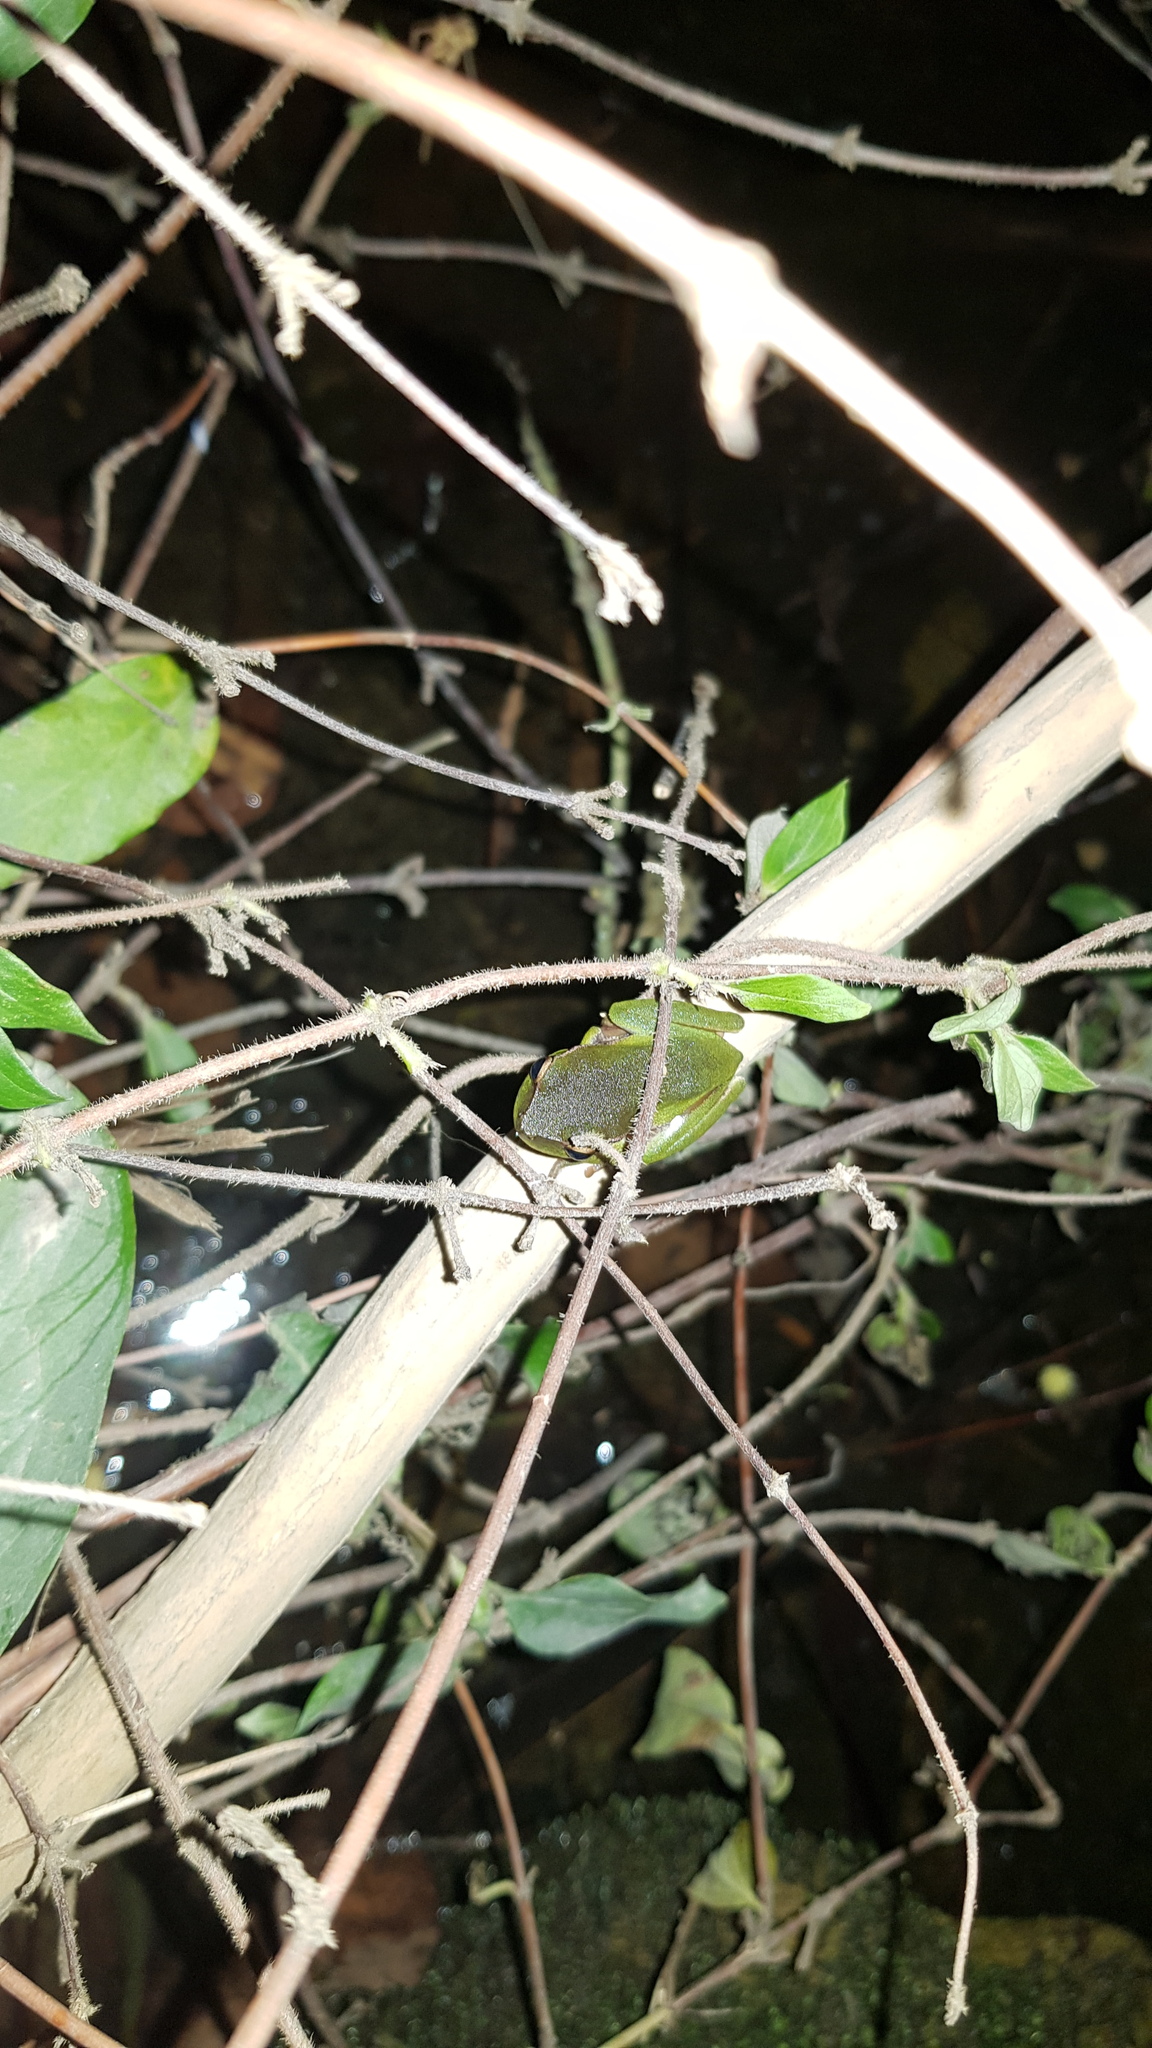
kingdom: Animalia
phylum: Chordata
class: Amphibia
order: Anura
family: Pelodryadidae
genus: Ranoidea
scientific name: Ranoidea phyllochroa
